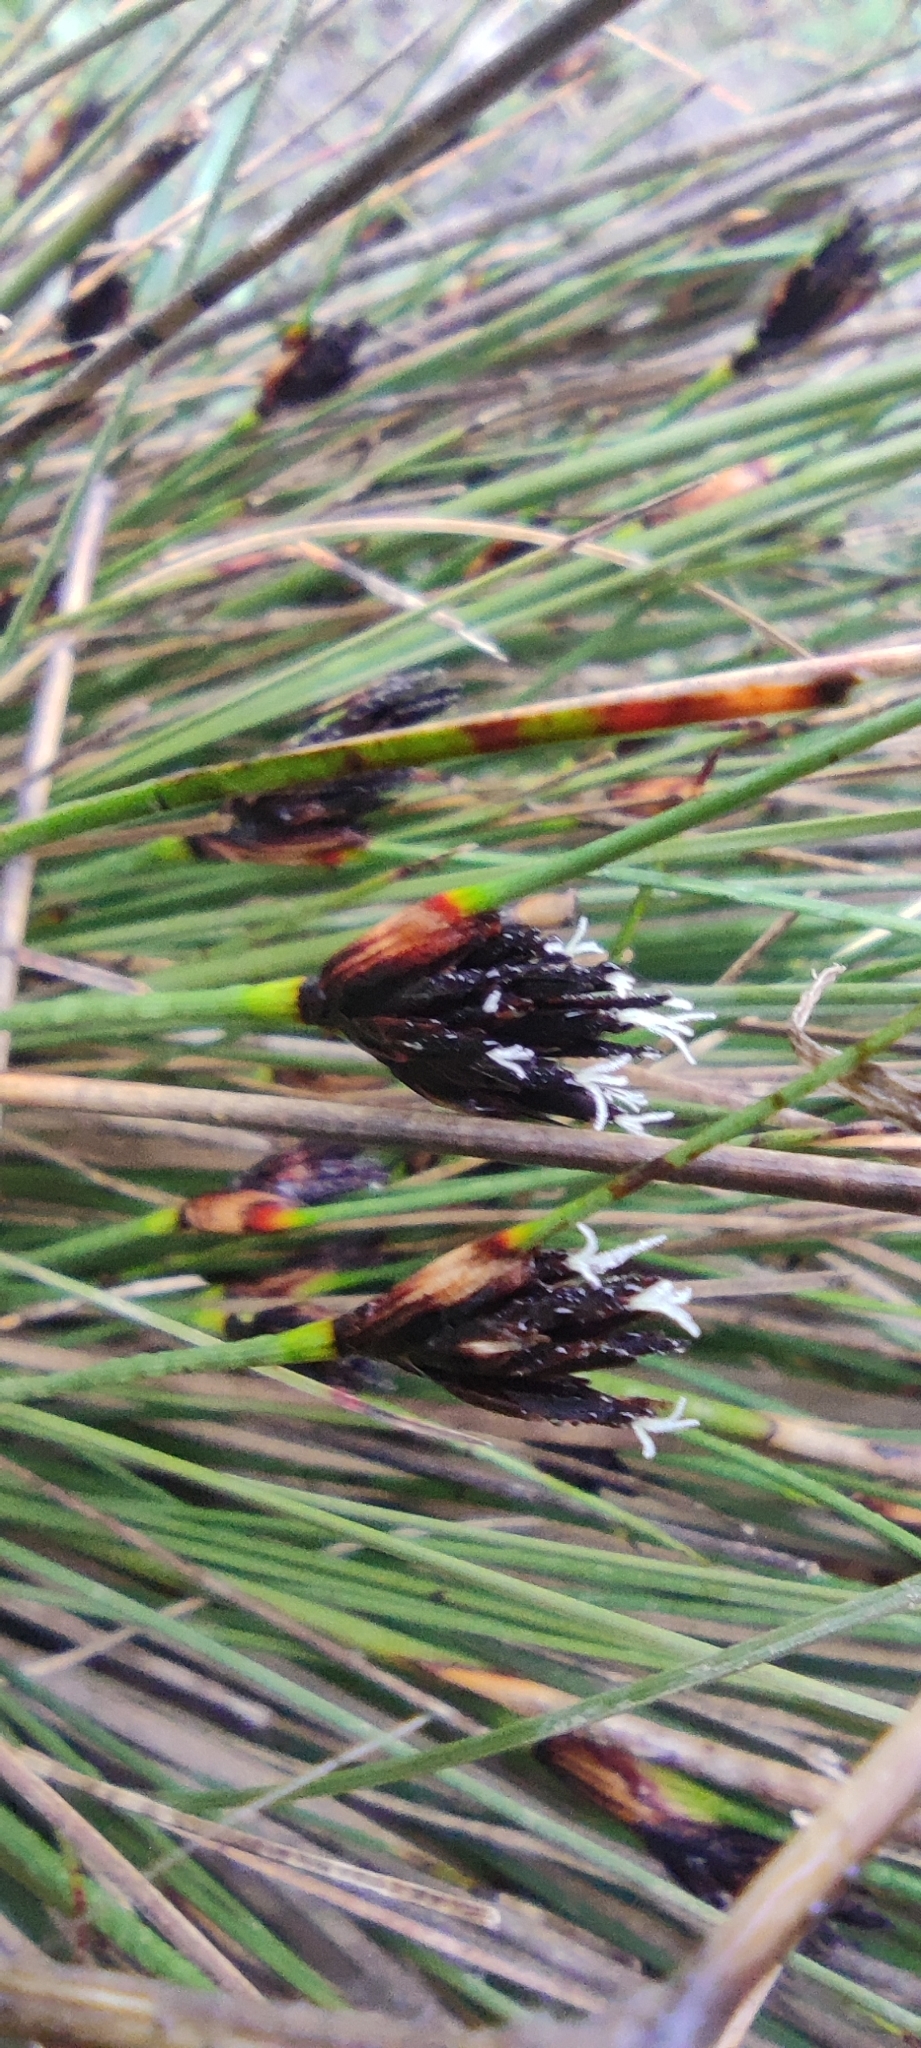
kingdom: Plantae
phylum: Tracheophyta
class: Liliopsida
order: Poales
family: Cyperaceae
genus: Schoenus
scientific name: Schoenus nigricans
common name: Black bog-rush
